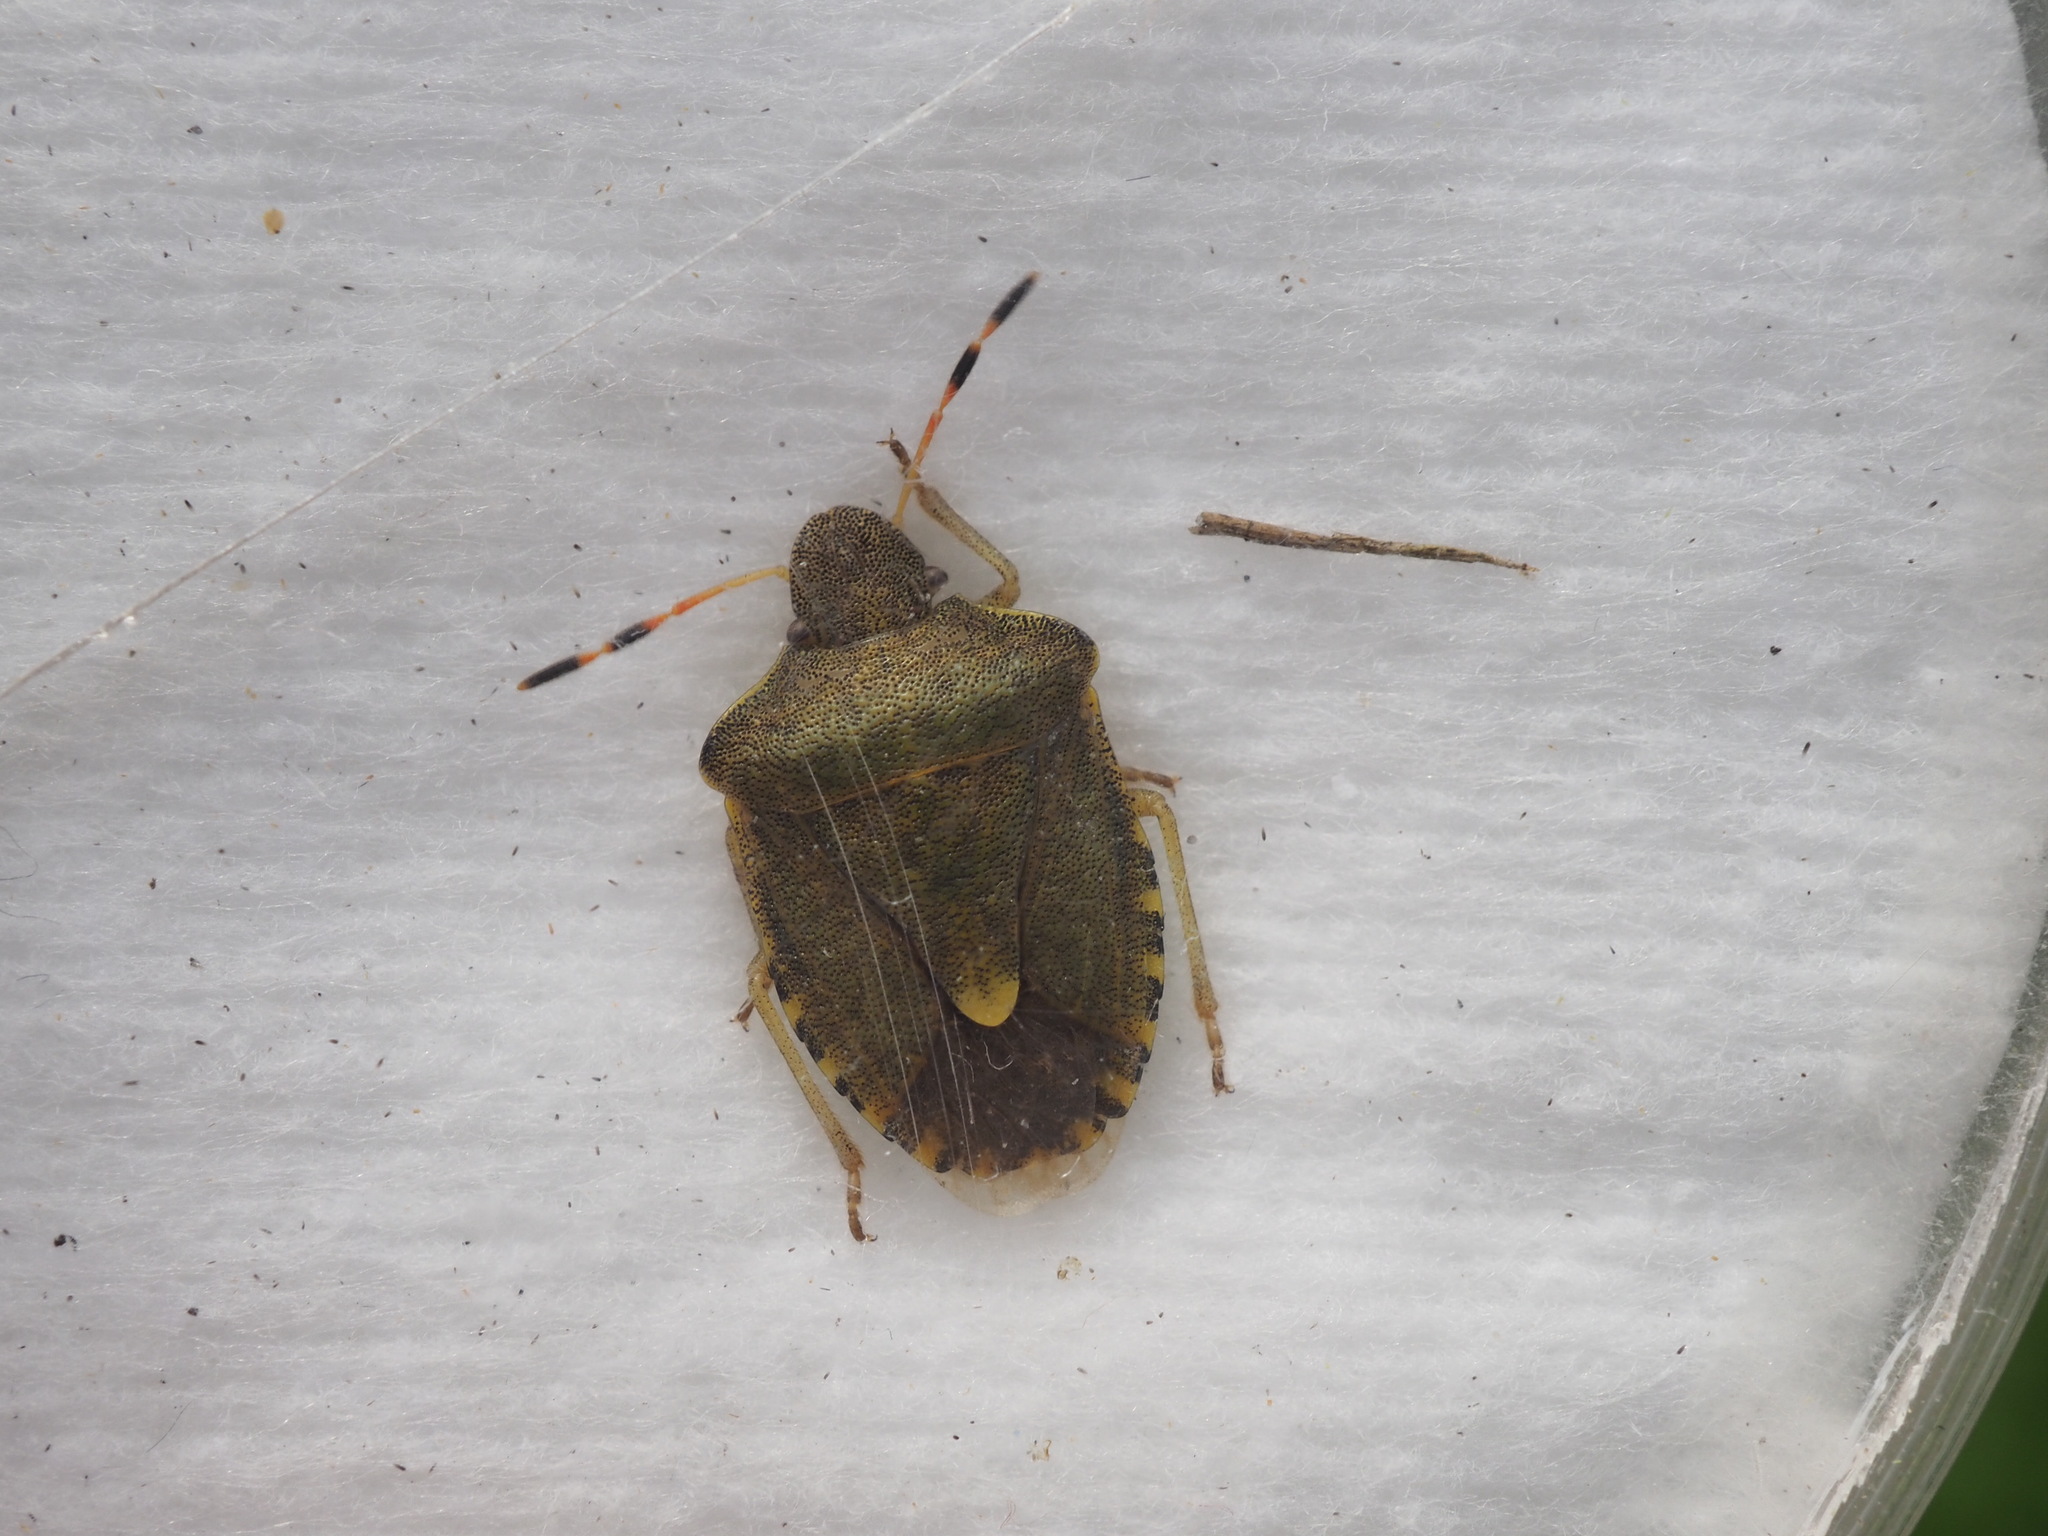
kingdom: Animalia
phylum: Arthropoda
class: Insecta
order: Hemiptera
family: Pentatomidae
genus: Holcostethus
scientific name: Holcostethus strictus
